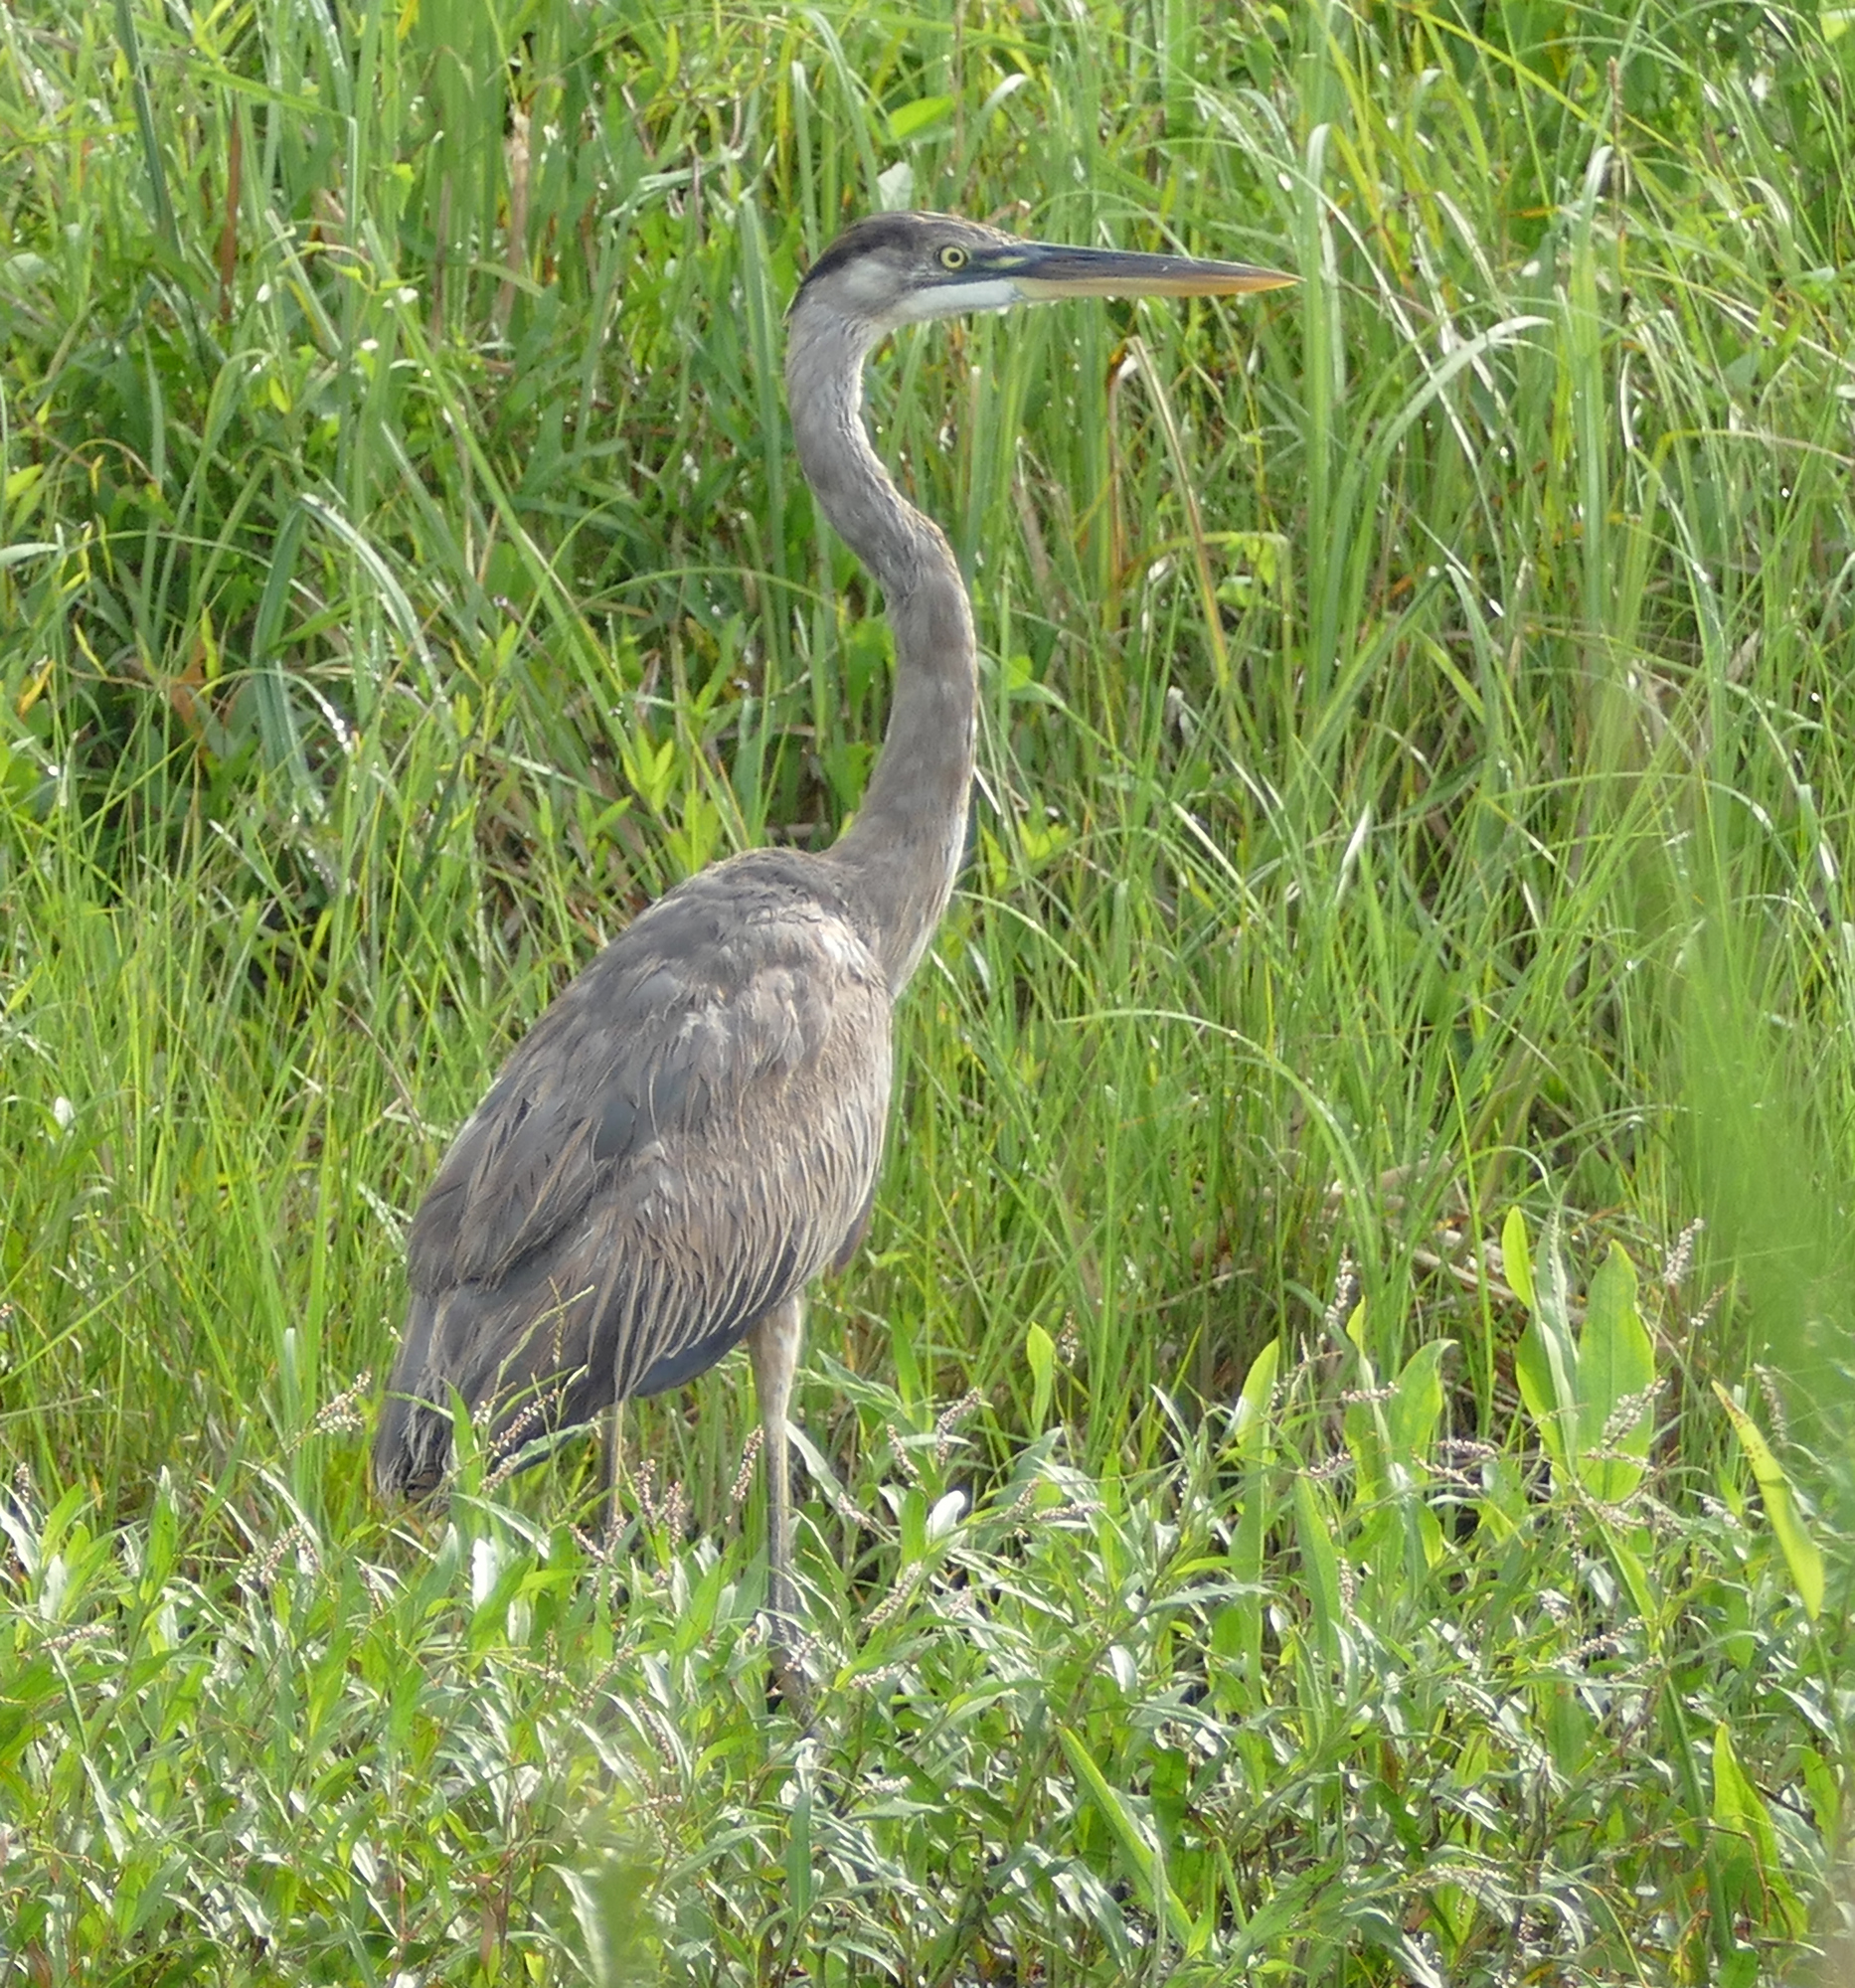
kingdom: Animalia
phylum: Chordata
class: Aves
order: Pelecaniformes
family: Ardeidae
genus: Ardea
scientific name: Ardea herodias
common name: Great blue heron
